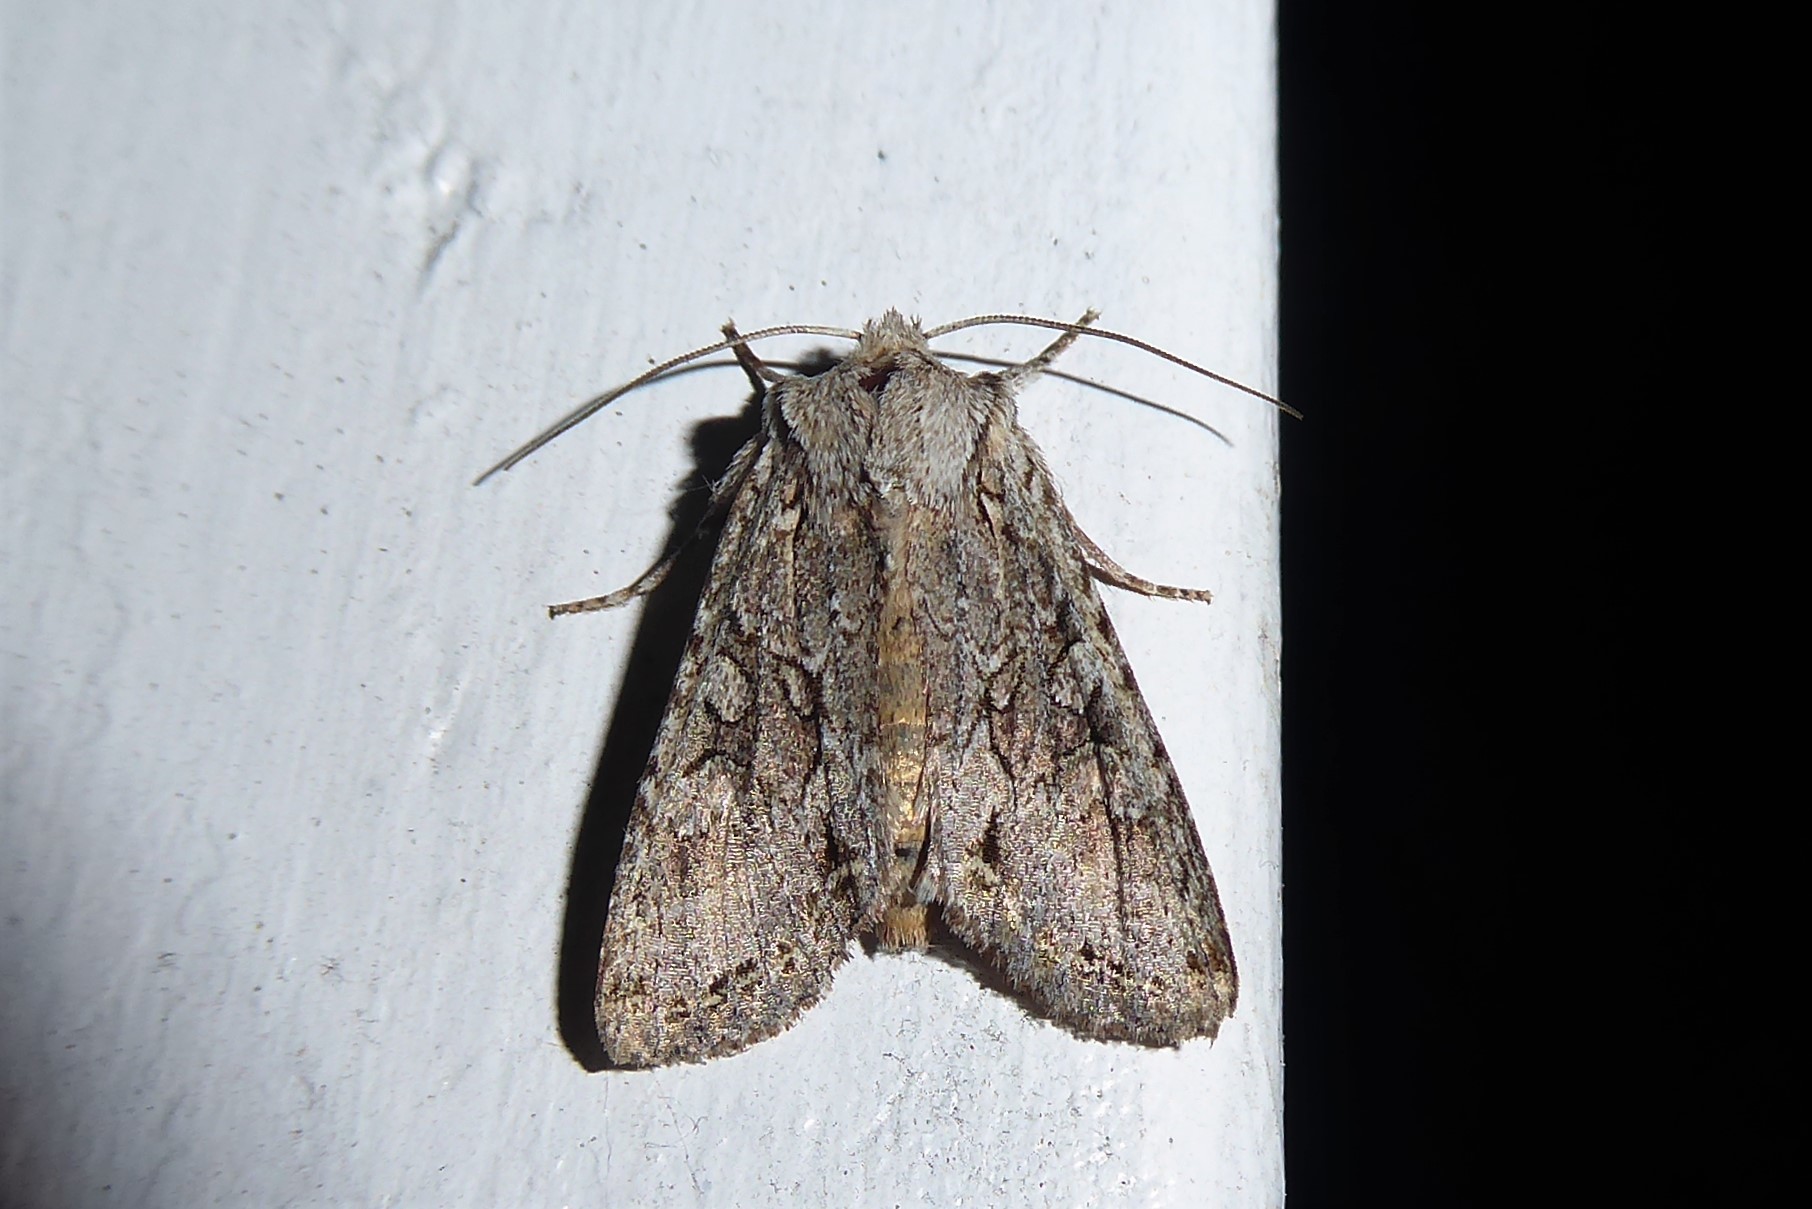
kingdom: Animalia
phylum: Arthropoda
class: Insecta
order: Lepidoptera
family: Noctuidae
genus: Ichneutica
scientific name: Ichneutica mutans
